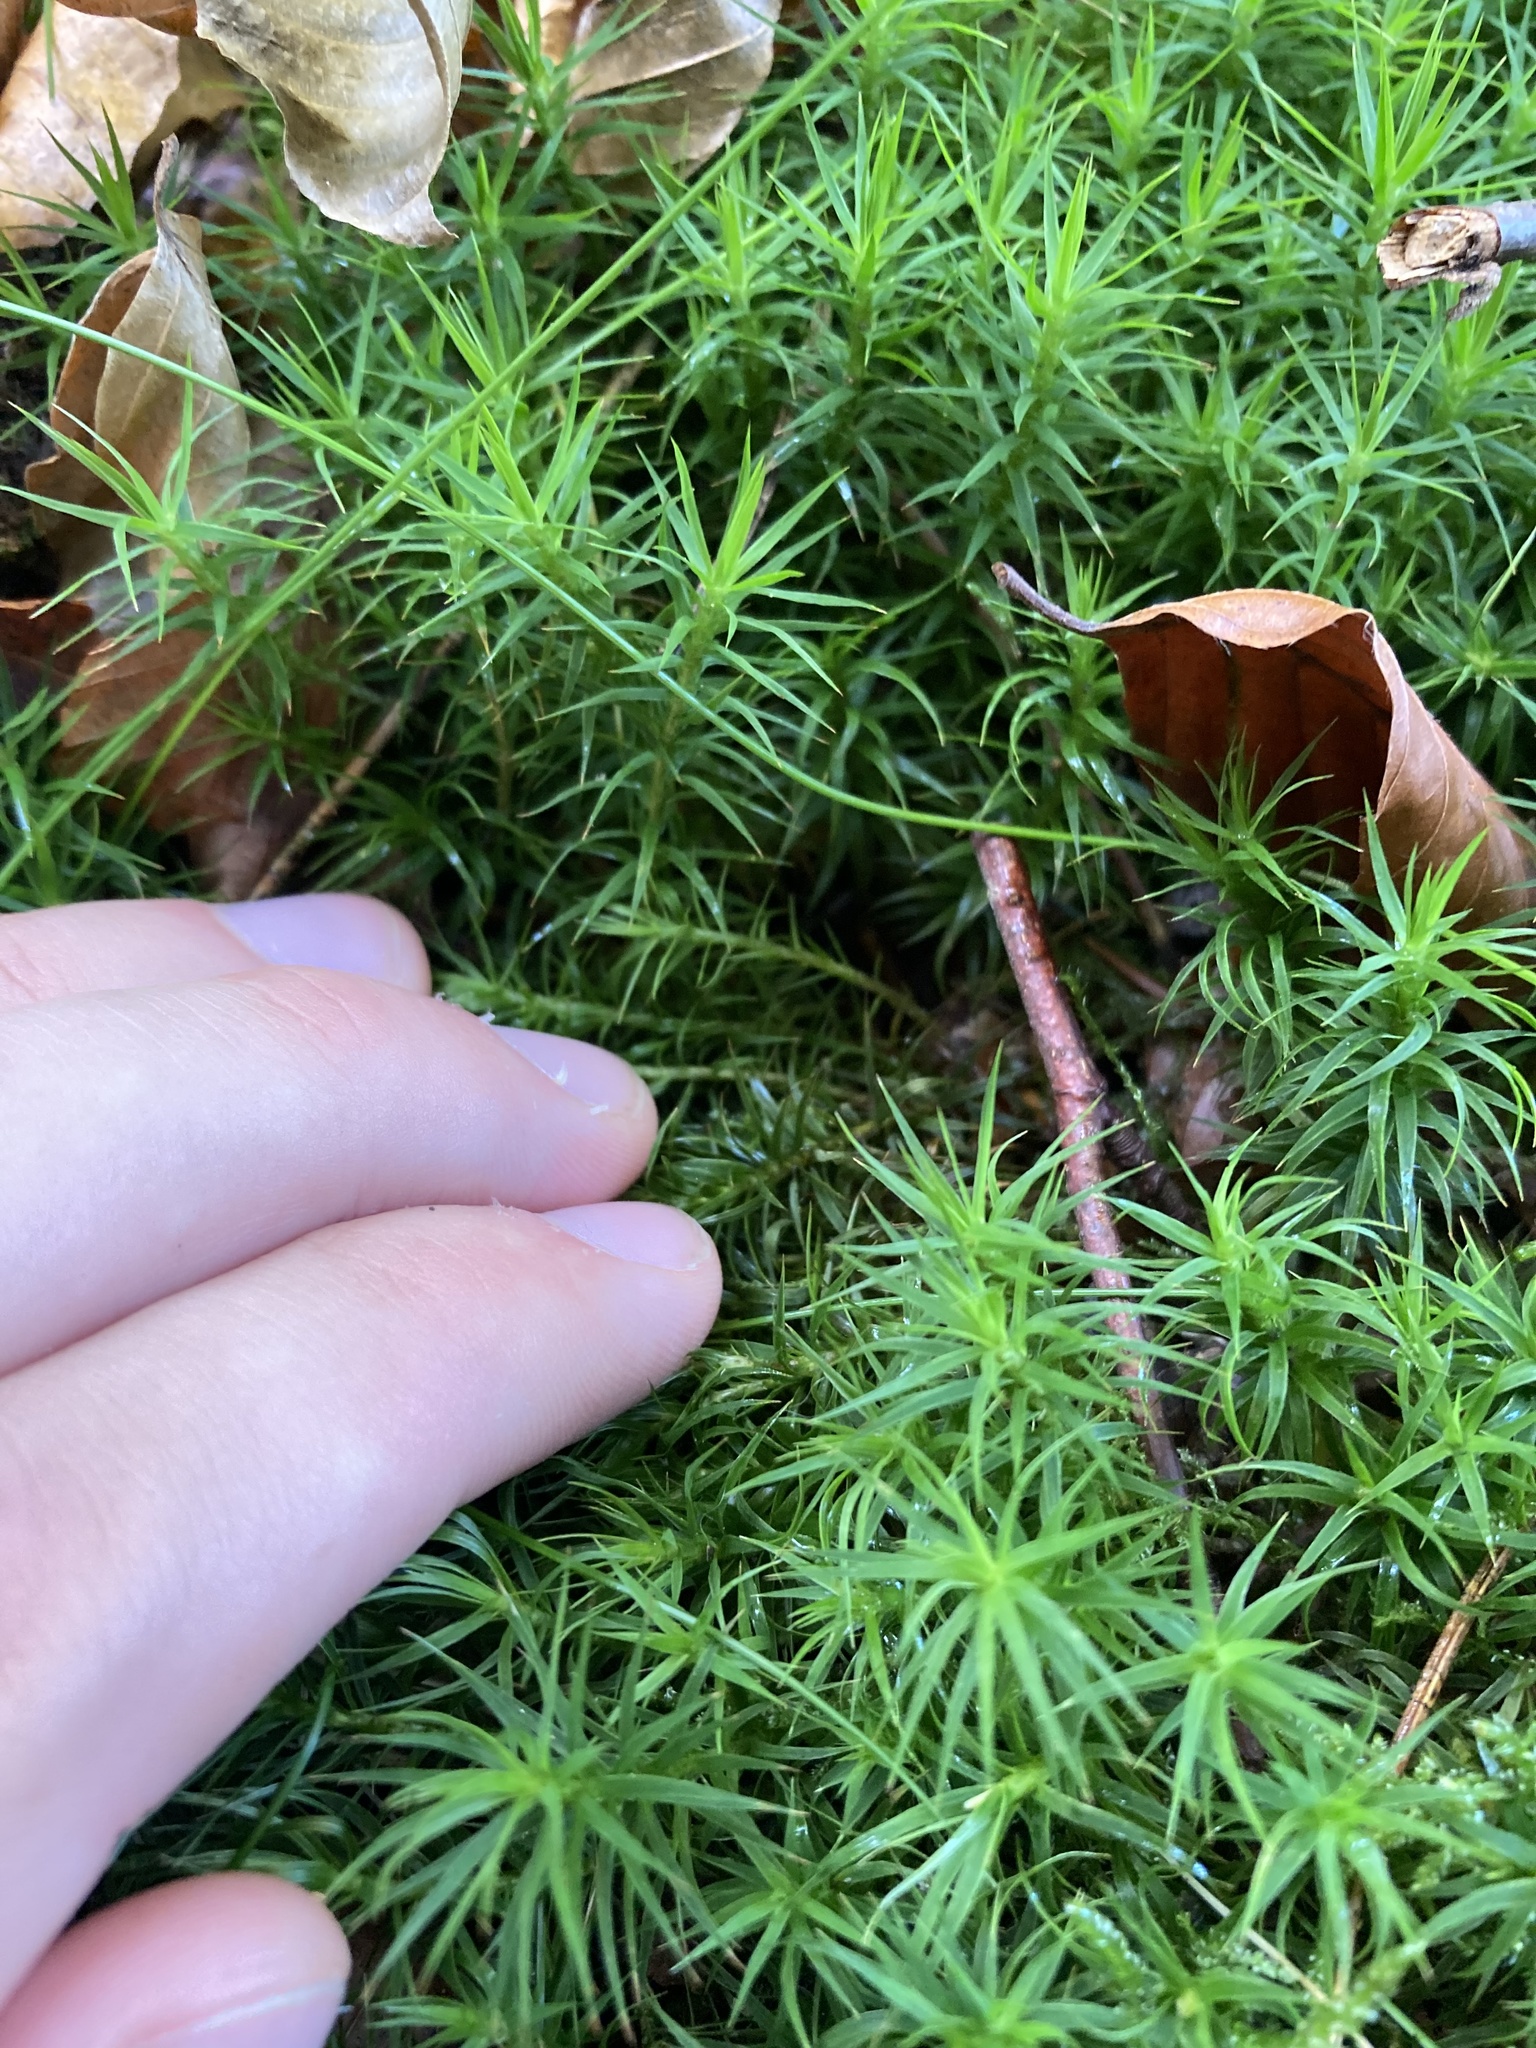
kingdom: Plantae
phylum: Bryophyta
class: Polytrichopsida
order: Polytrichales
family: Polytrichaceae
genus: Polytrichum
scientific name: Polytrichum formosum
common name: Bank haircap moss
